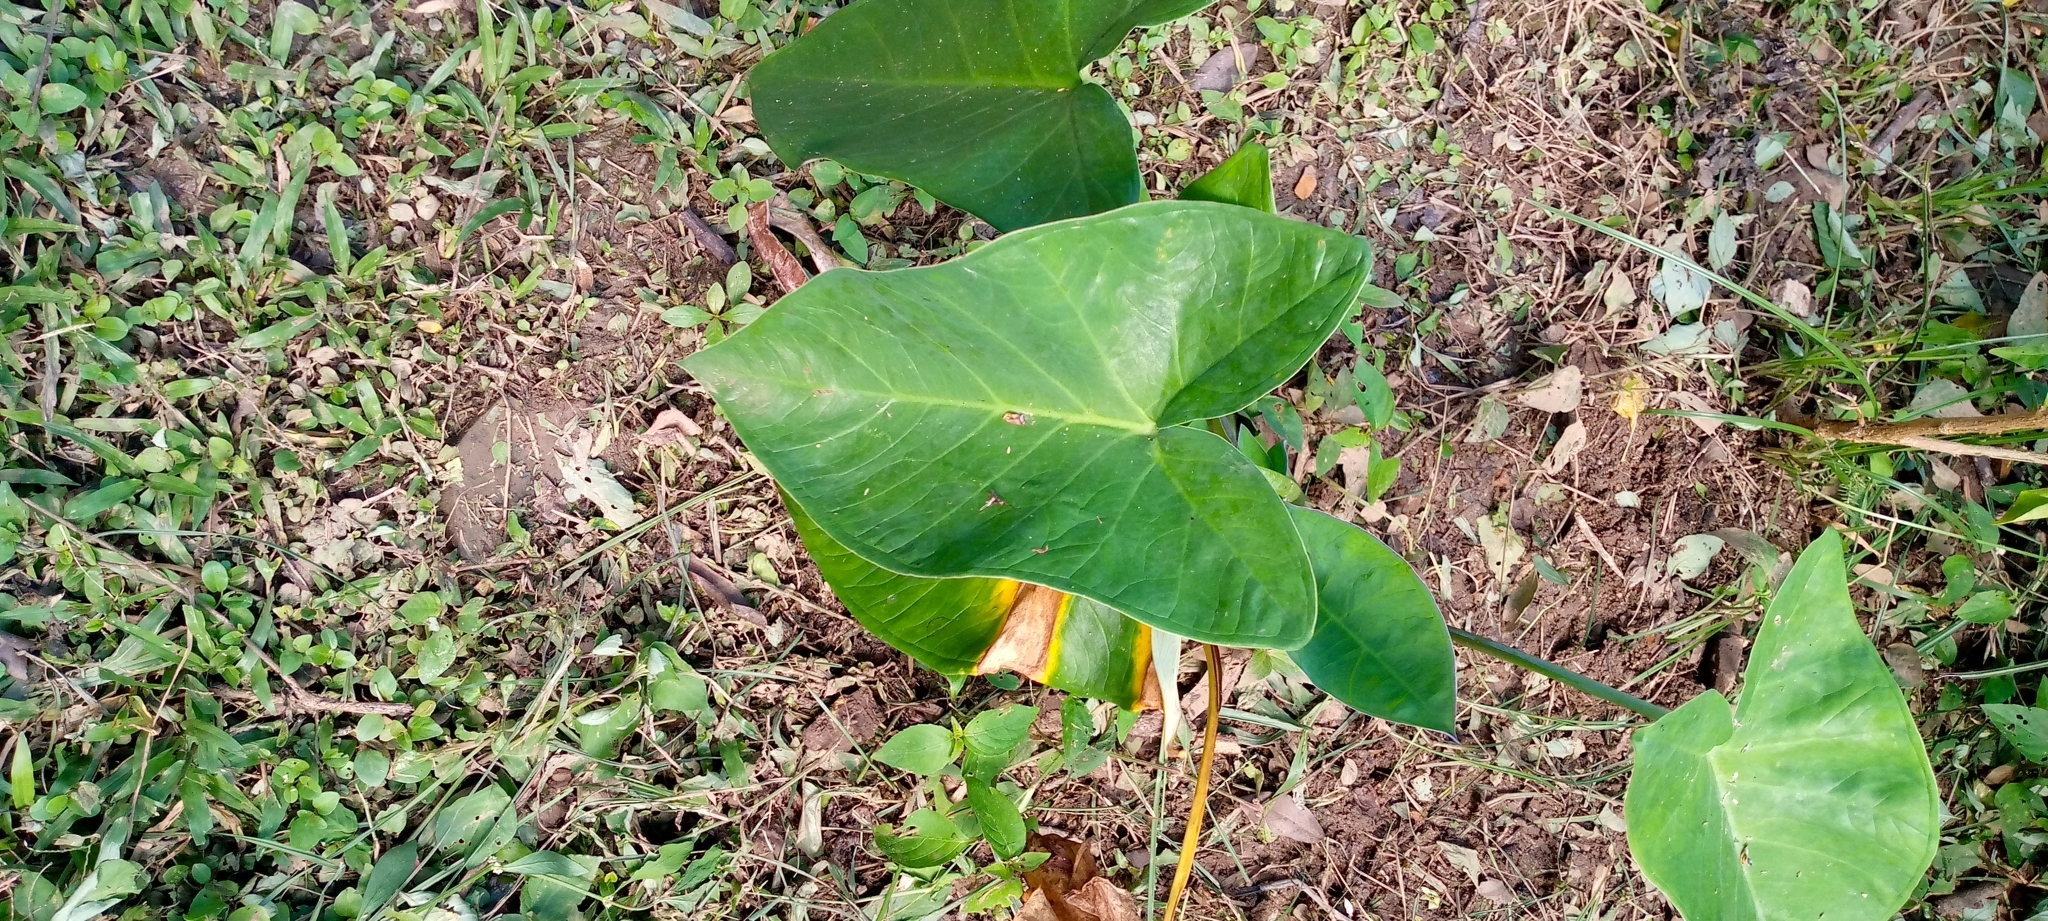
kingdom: Plantae
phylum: Tracheophyta
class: Liliopsida
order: Alismatales
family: Araceae
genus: Xanthosoma
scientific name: Xanthosoma sagittifolium
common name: Arrowleaf elephant's ear
